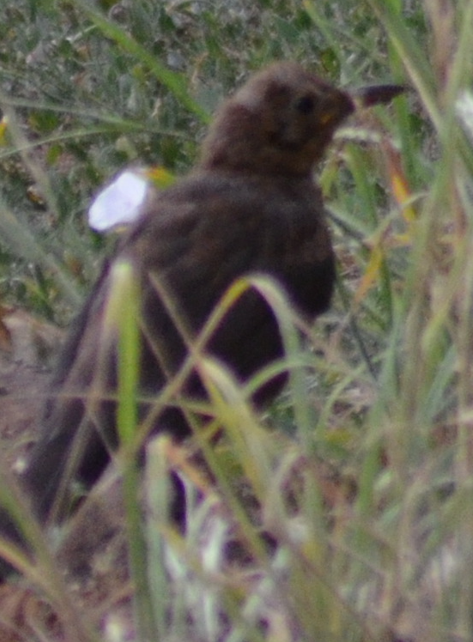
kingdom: Animalia
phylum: Chordata
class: Aves
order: Passeriformes
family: Turdidae
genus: Turdus
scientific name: Turdus merula
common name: Common blackbird
